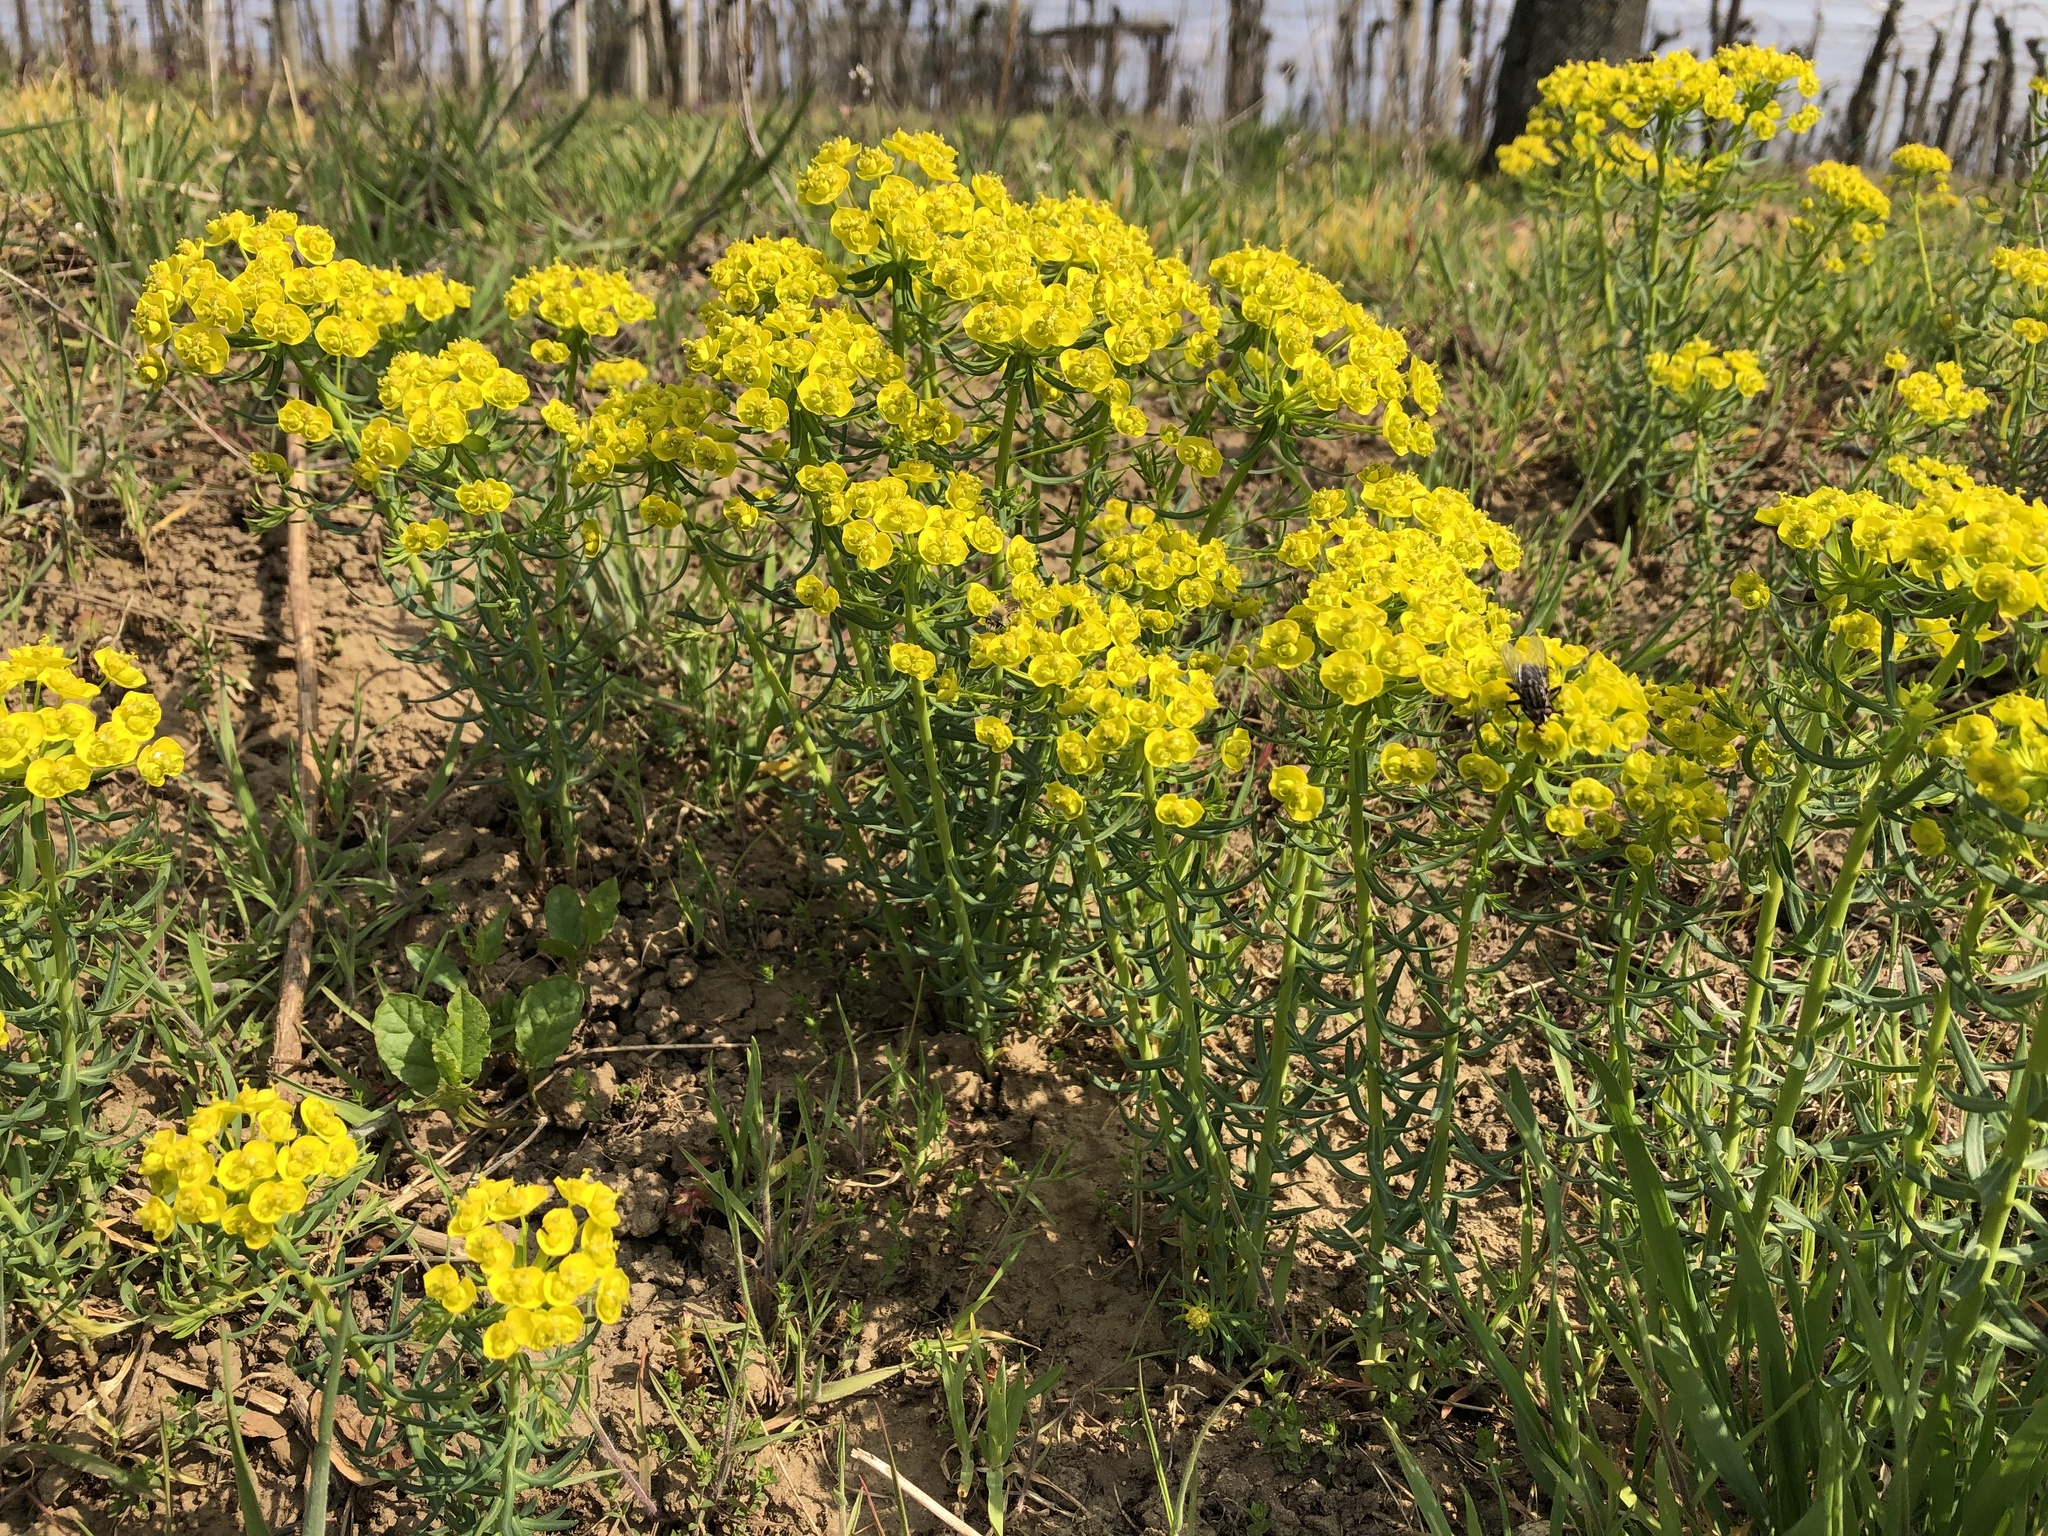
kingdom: Plantae
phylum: Tracheophyta
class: Magnoliopsida
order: Malpighiales
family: Euphorbiaceae
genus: Euphorbia
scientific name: Euphorbia cyparissias
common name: Cypress spurge
